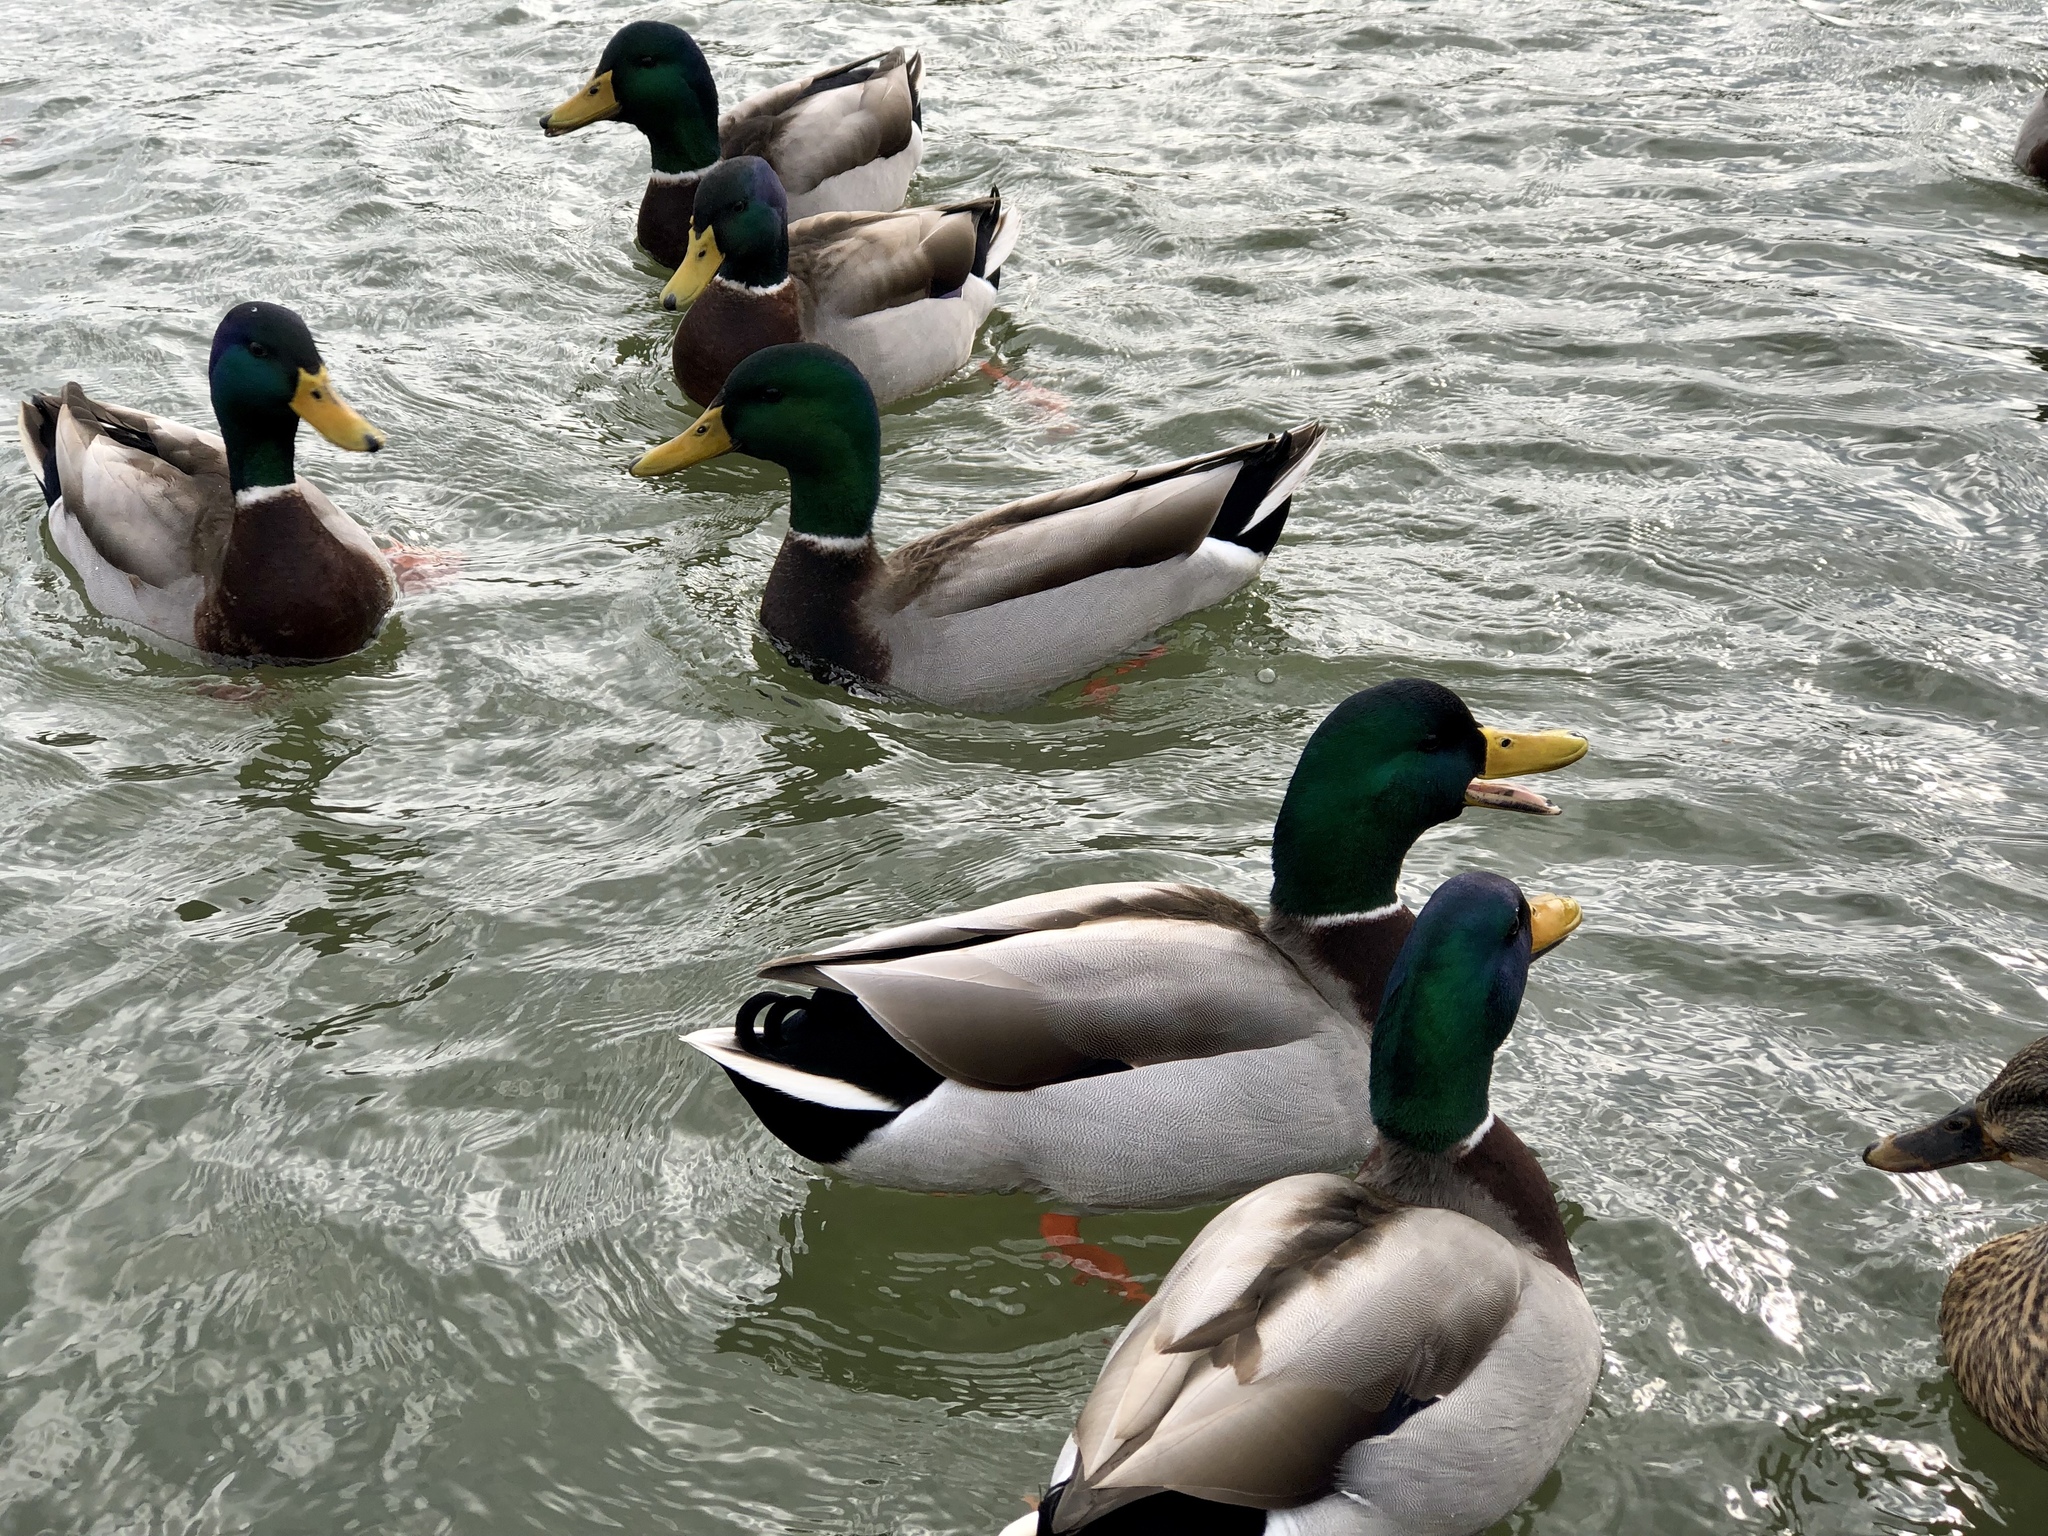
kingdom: Animalia
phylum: Chordata
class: Aves
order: Anseriformes
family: Anatidae
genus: Anas
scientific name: Anas platyrhynchos
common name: Mallard
